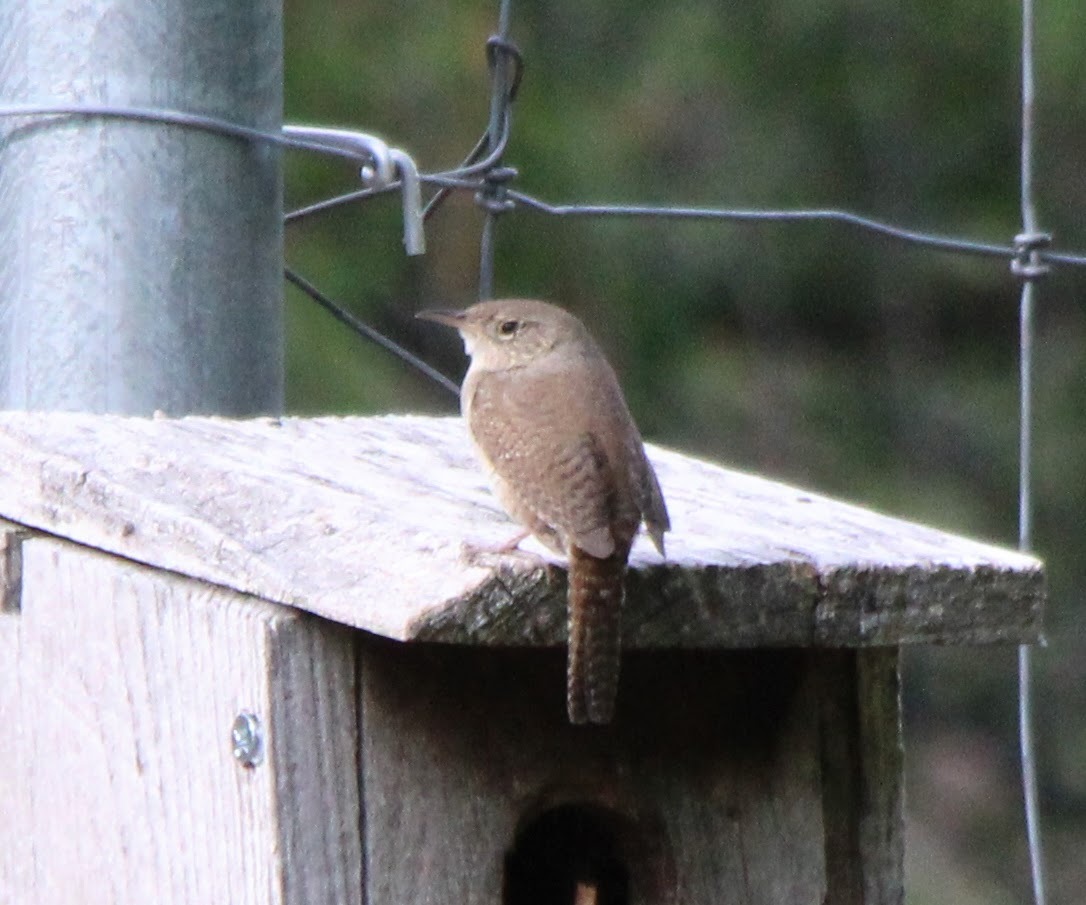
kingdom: Animalia
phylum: Chordata
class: Aves
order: Passeriformes
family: Troglodytidae
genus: Troglodytes
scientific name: Troglodytes aedon
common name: House wren
